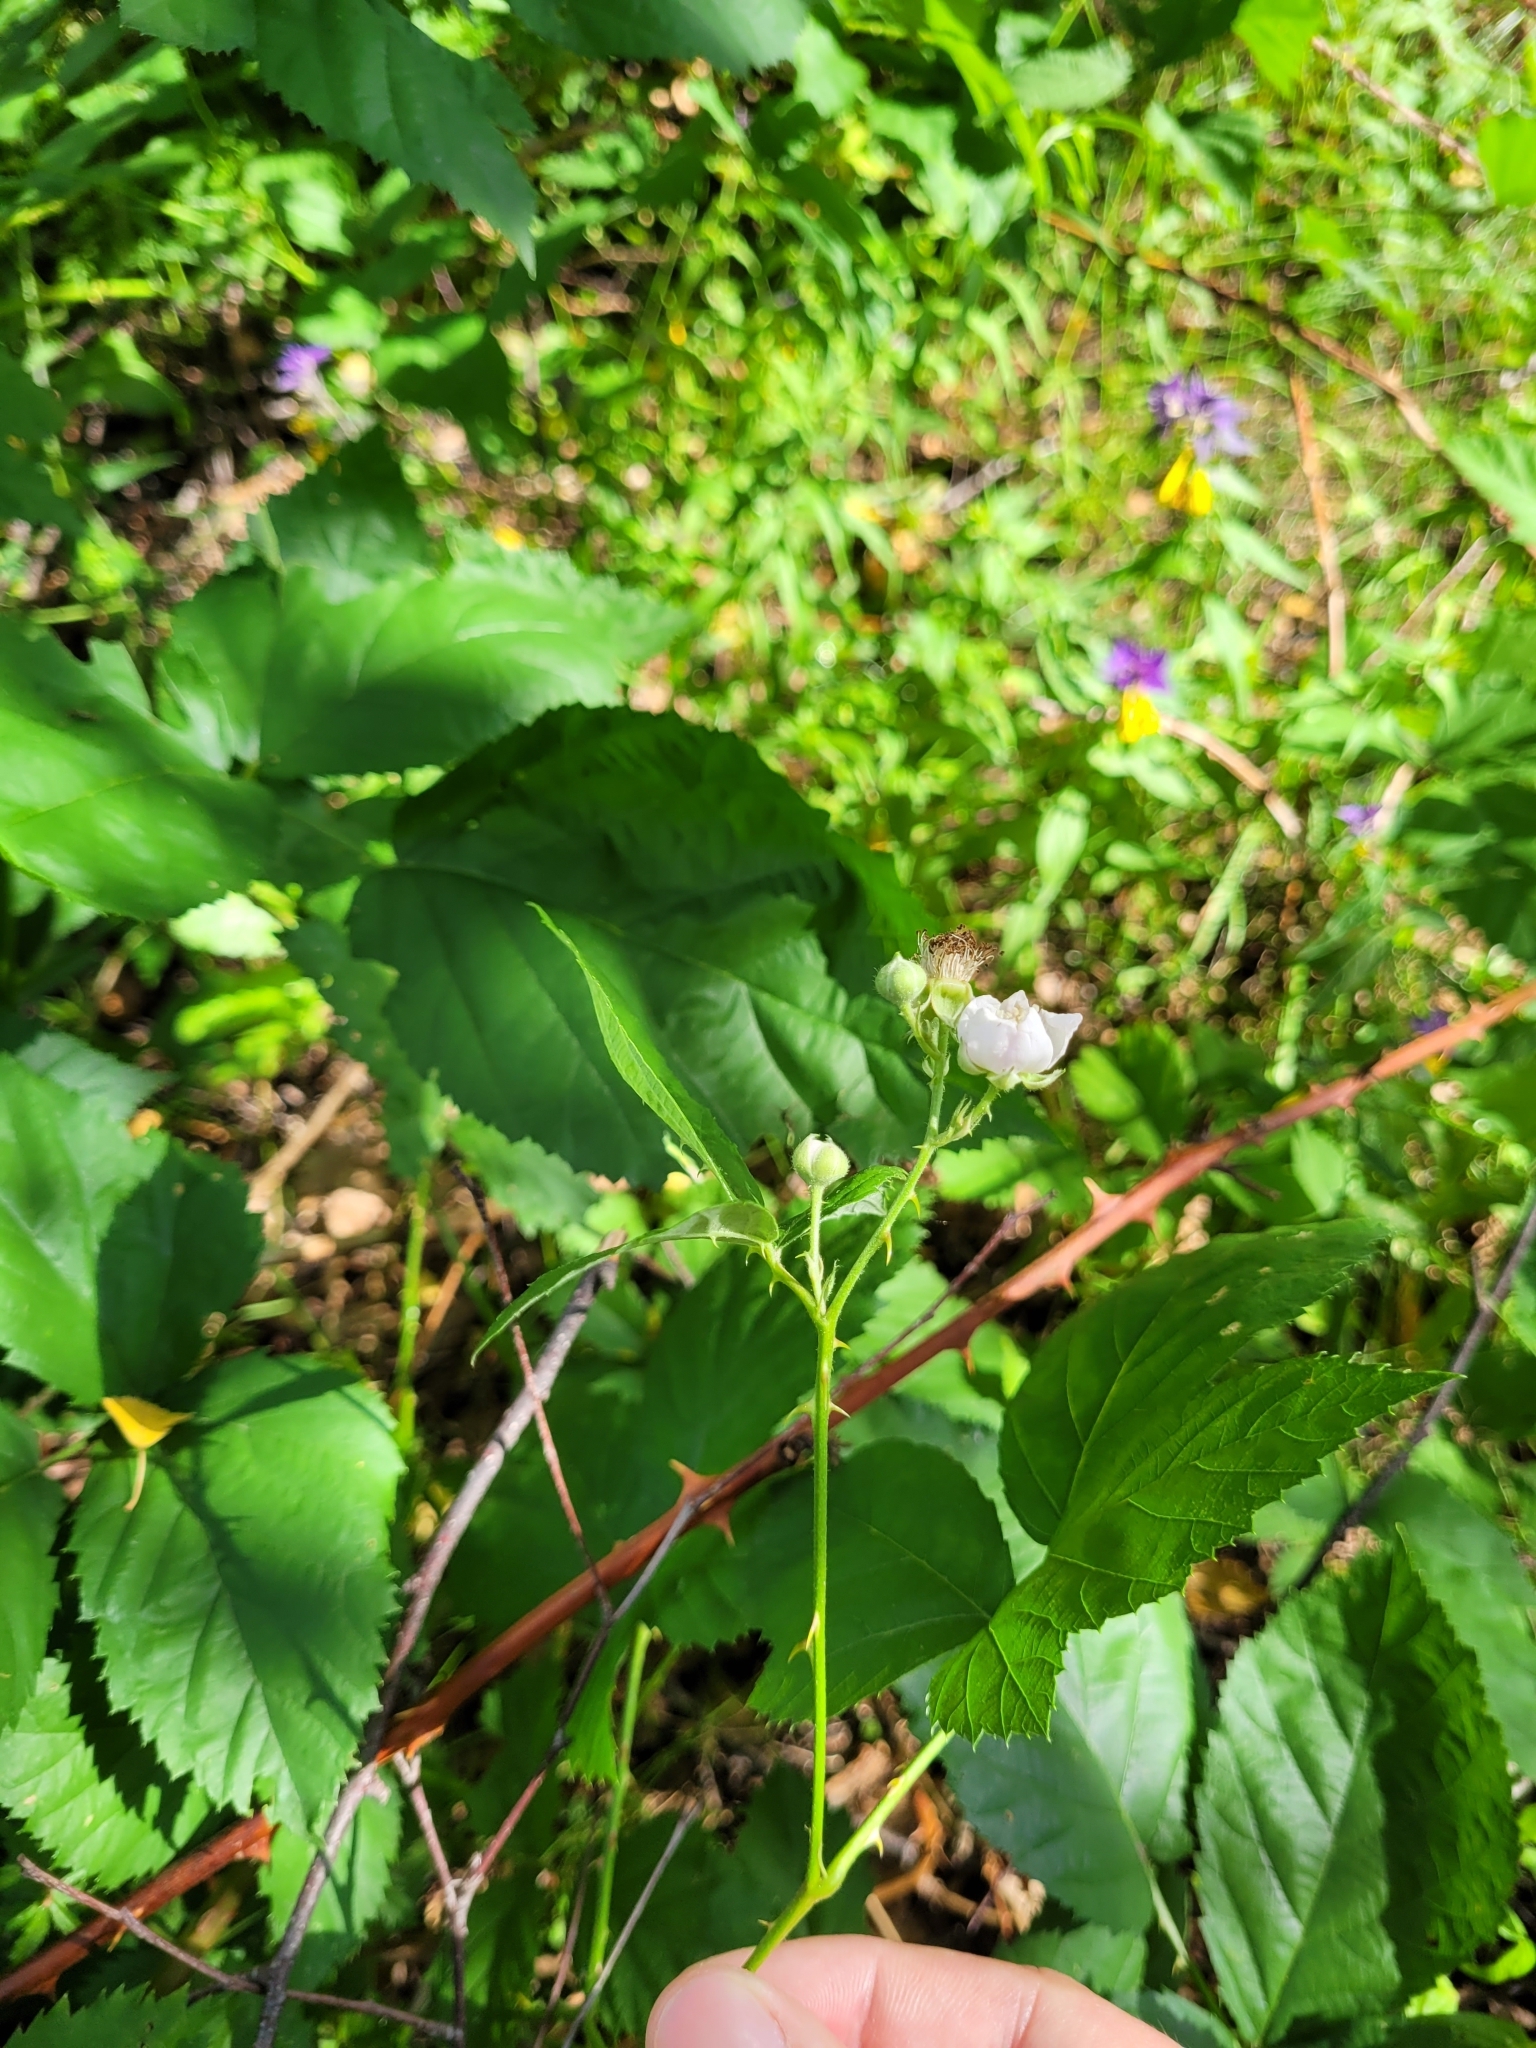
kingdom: Plantae
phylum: Tracheophyta
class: Magnoliopsida
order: Rosales
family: Rosaceae
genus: Rubus
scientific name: Rubus fruticosus
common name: Blackberry, bramble
